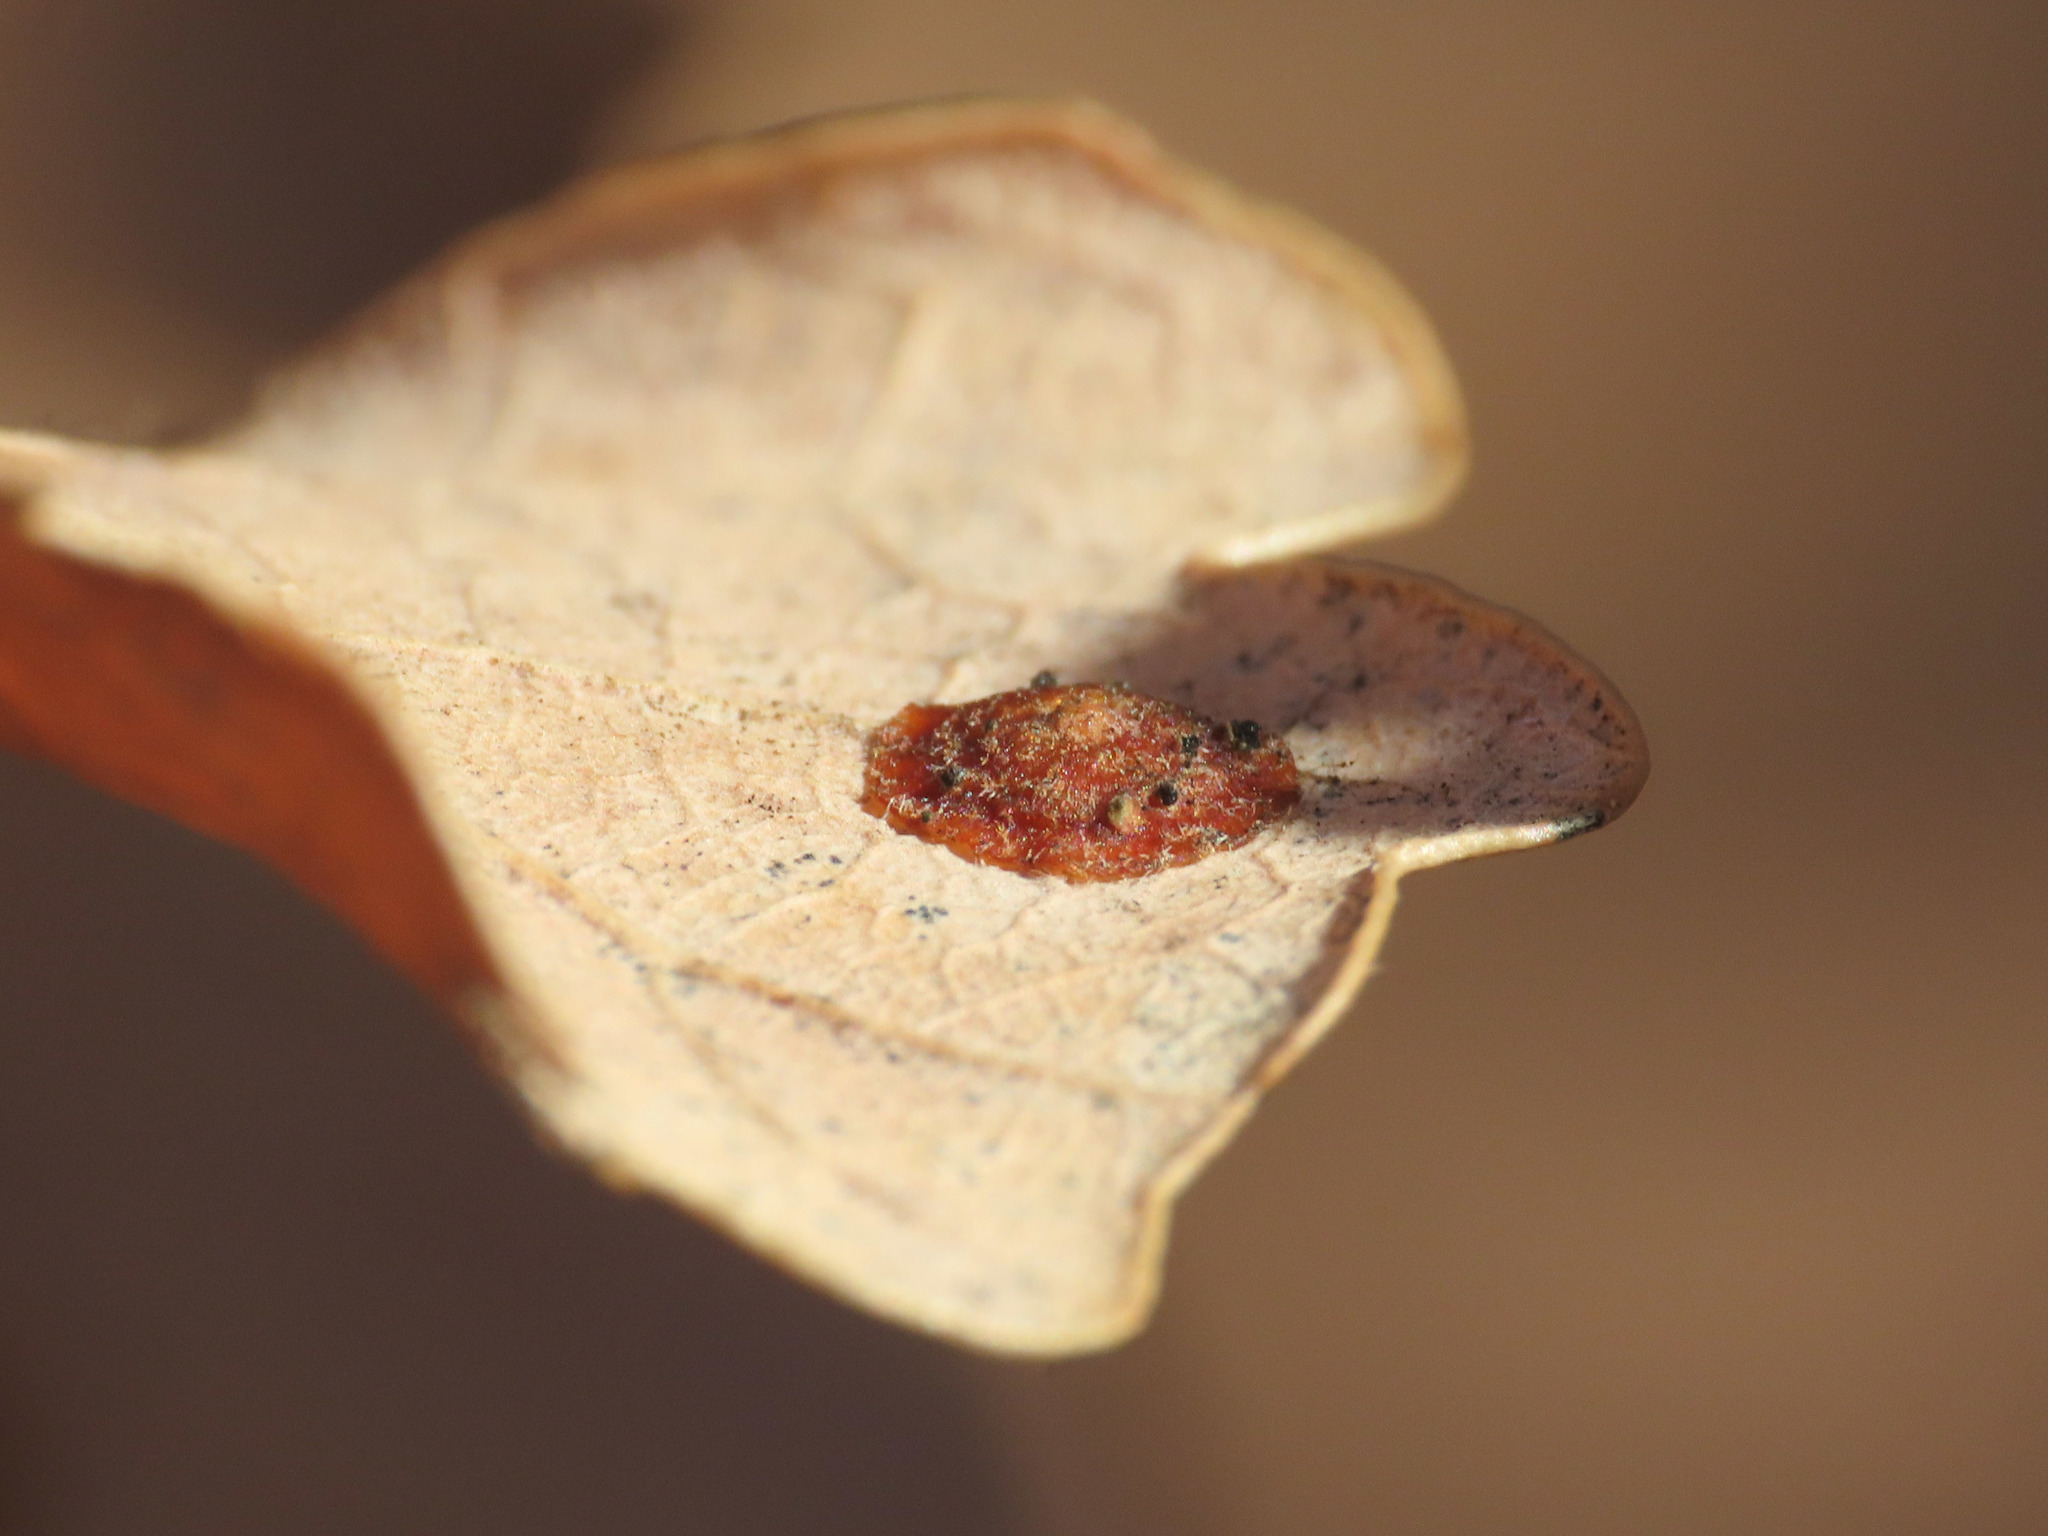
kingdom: Animalia
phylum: Arthropoda
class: Insecta
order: Hymenoptera
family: Cynipidae
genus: Neuroterus
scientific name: Neuroterus quercusbaccarum
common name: Common spangle gall
